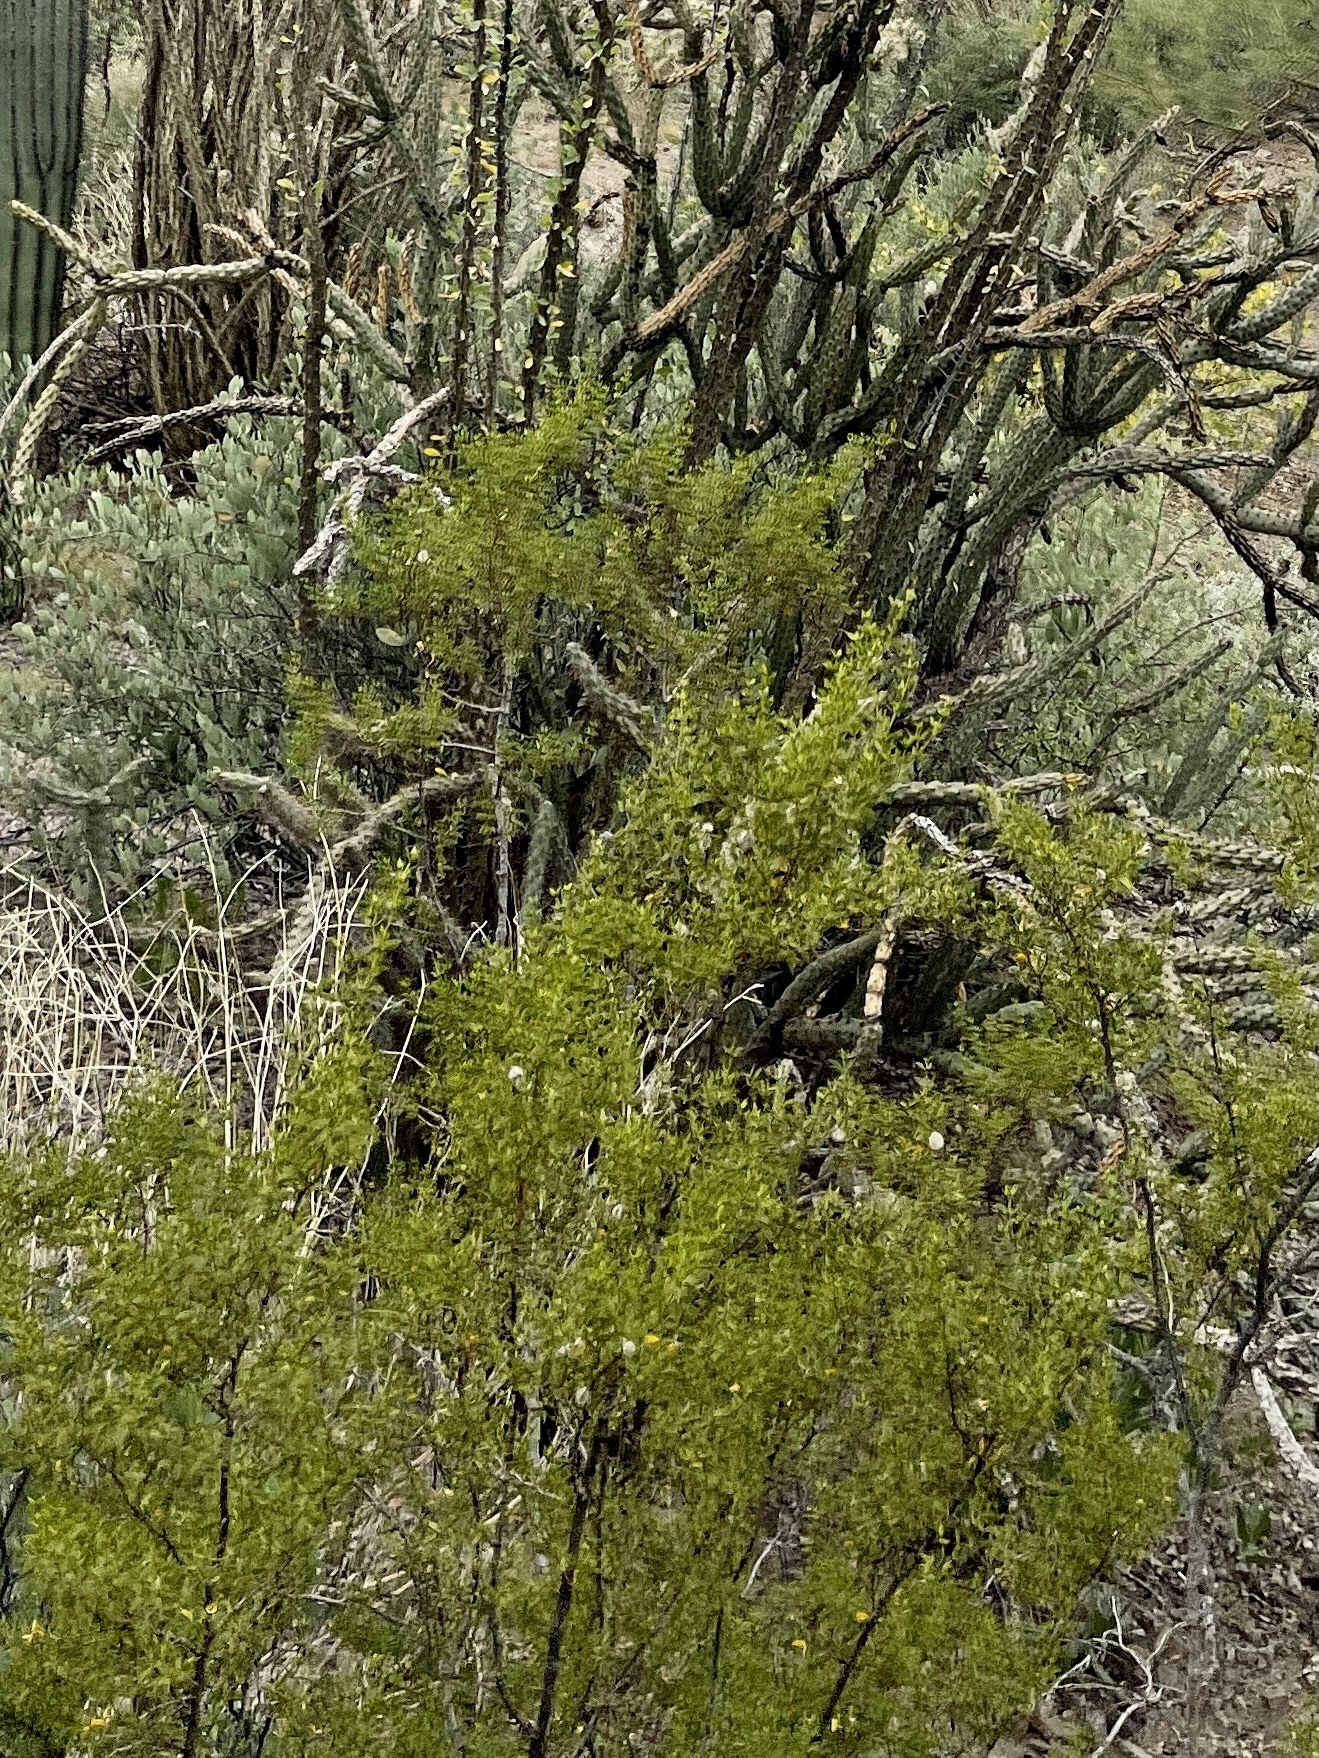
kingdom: Plantae
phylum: Tracheophyta
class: Magnoliopsida
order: Zygophyllales
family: Zygophyllaceae
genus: Larrea
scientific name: Larrea tridentata
